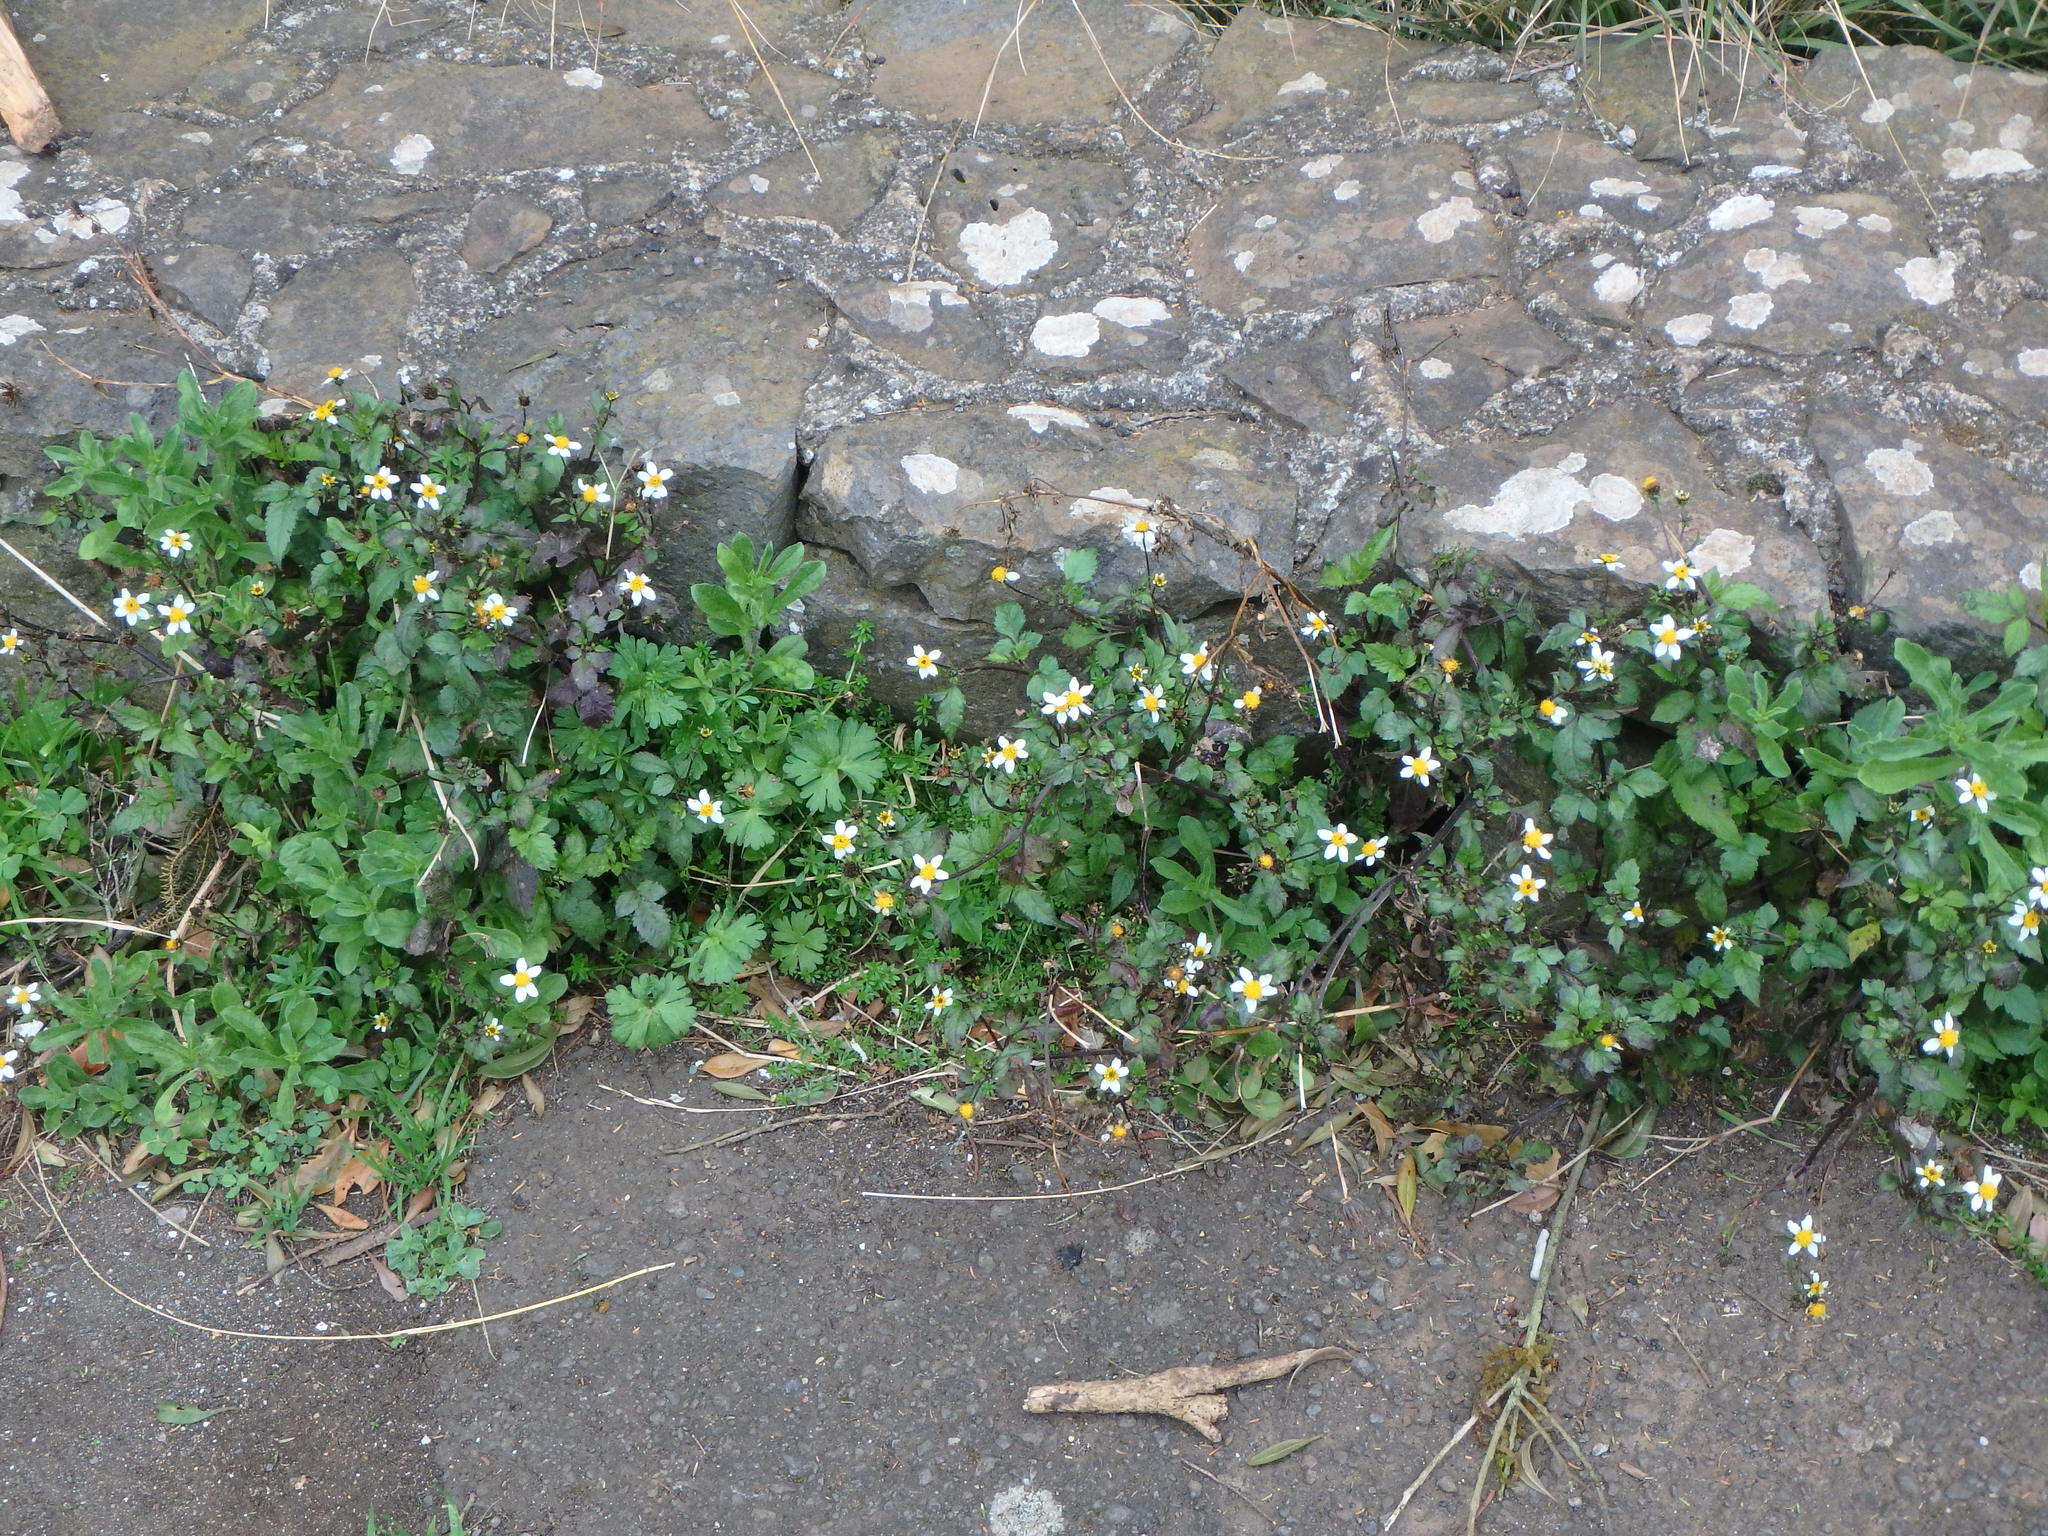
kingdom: Plantae
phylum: Tracheophyta
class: Magnoliopsida
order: Asterales
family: Asteraceae
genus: Bidens
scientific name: Bidens pilosa
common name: Black-jack
